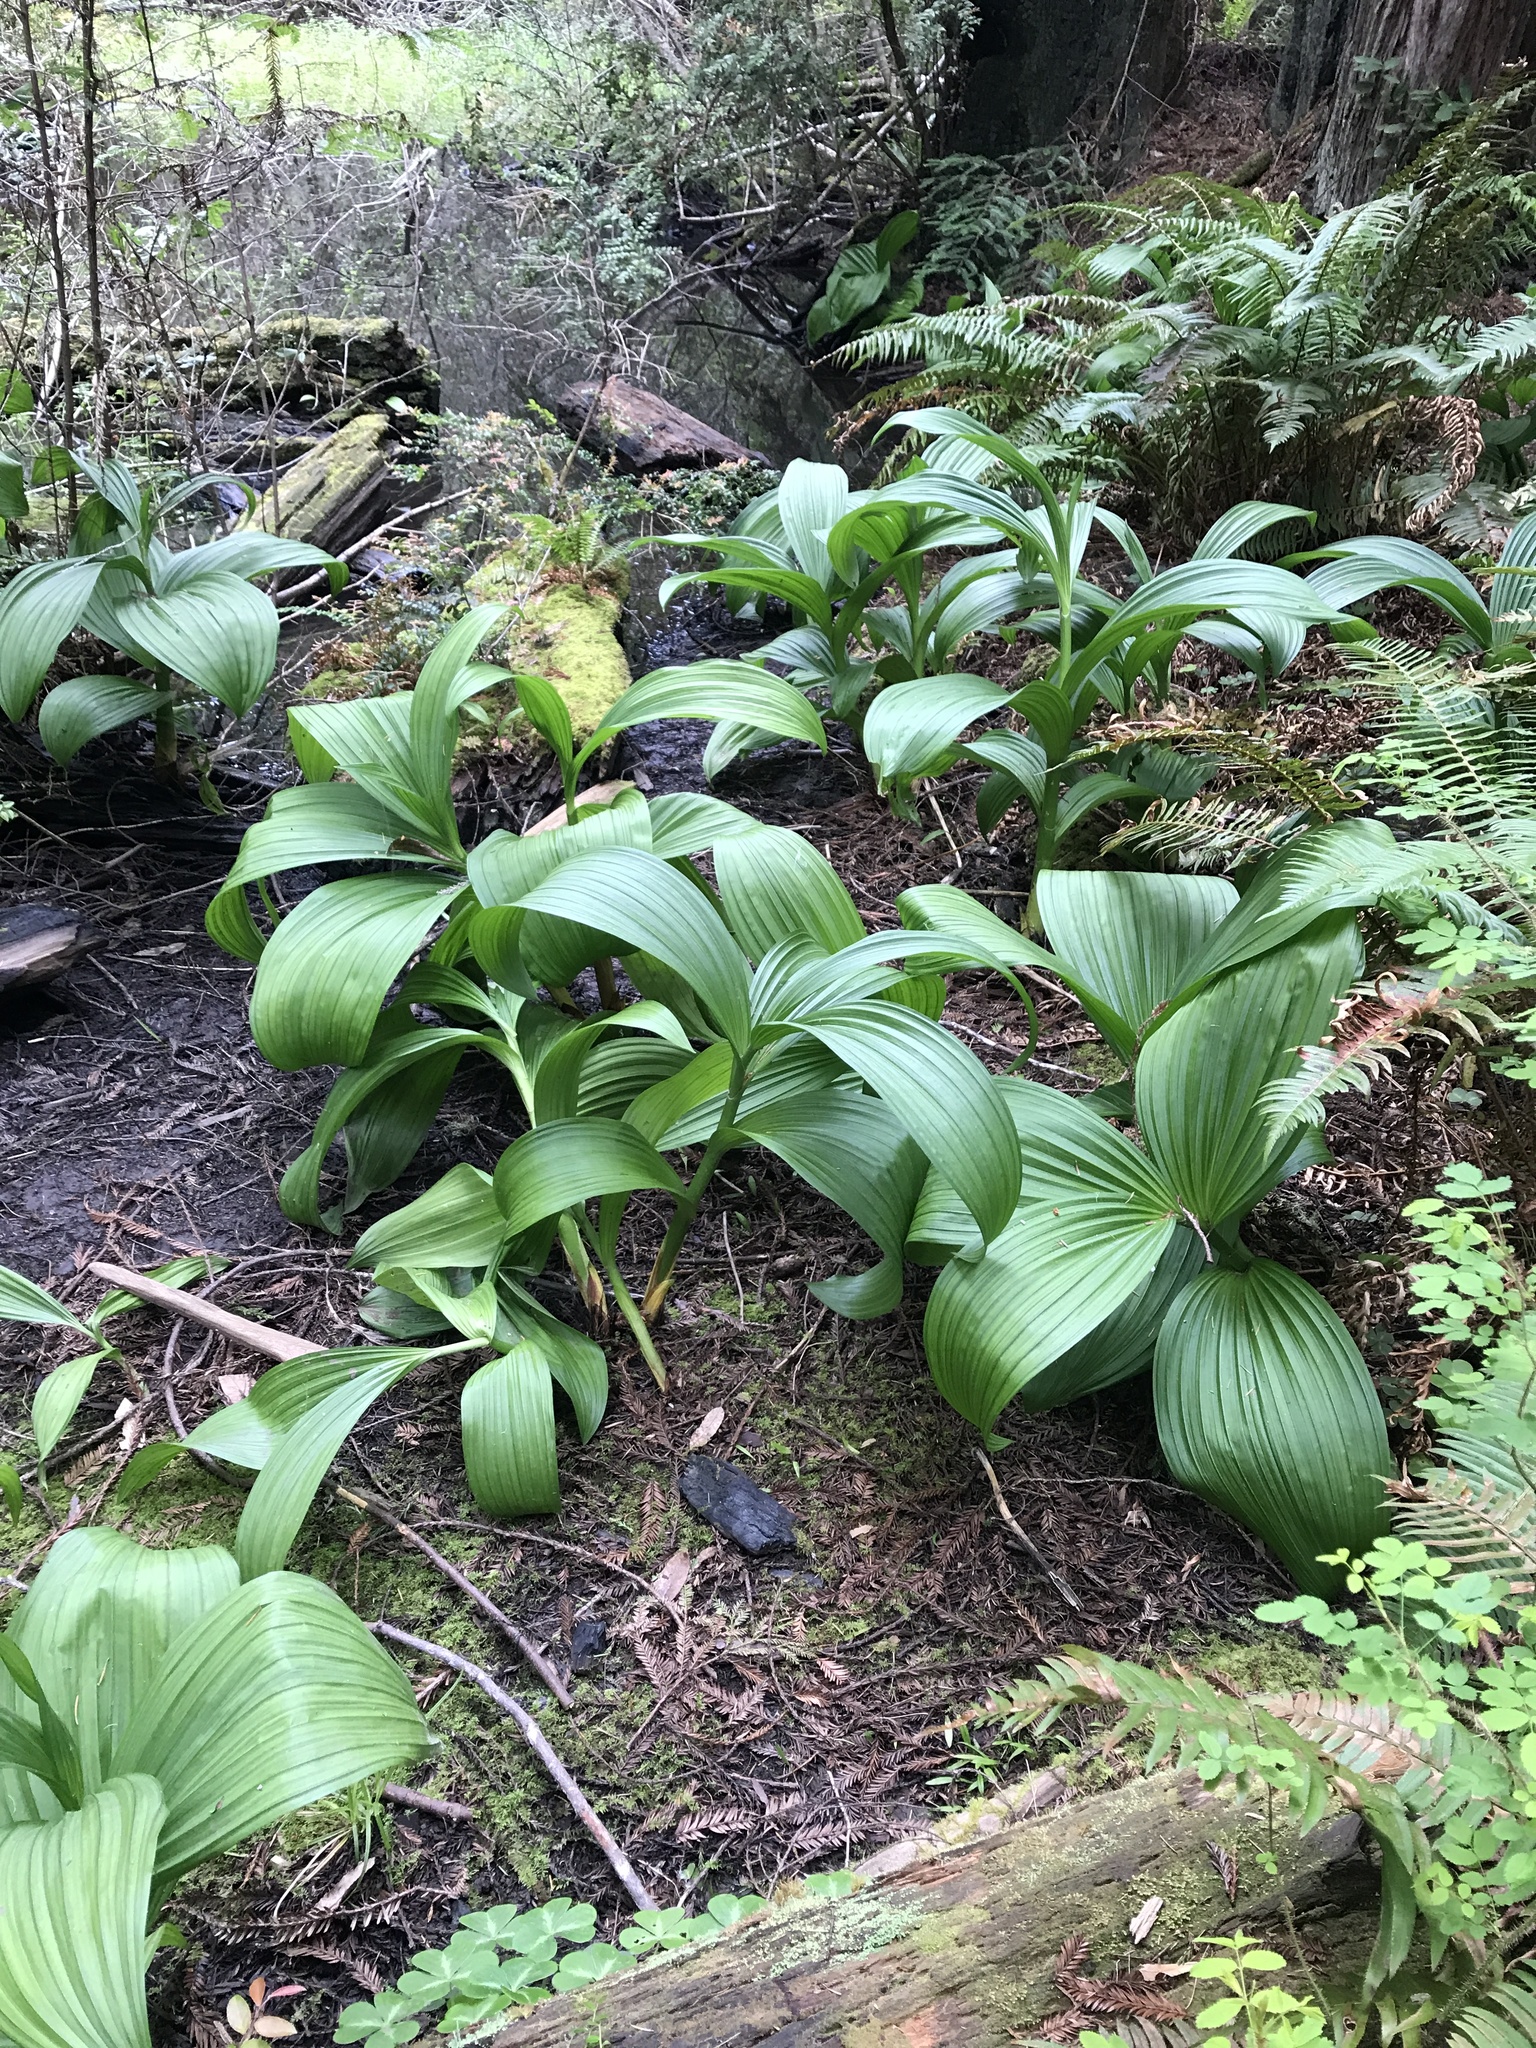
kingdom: Plantae
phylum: Tracheophyta
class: Liliopsida
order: Liliales
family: Melanthiaceae
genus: Veratrum
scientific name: Veratrum fimbriatum
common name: Fringe false hellobore
